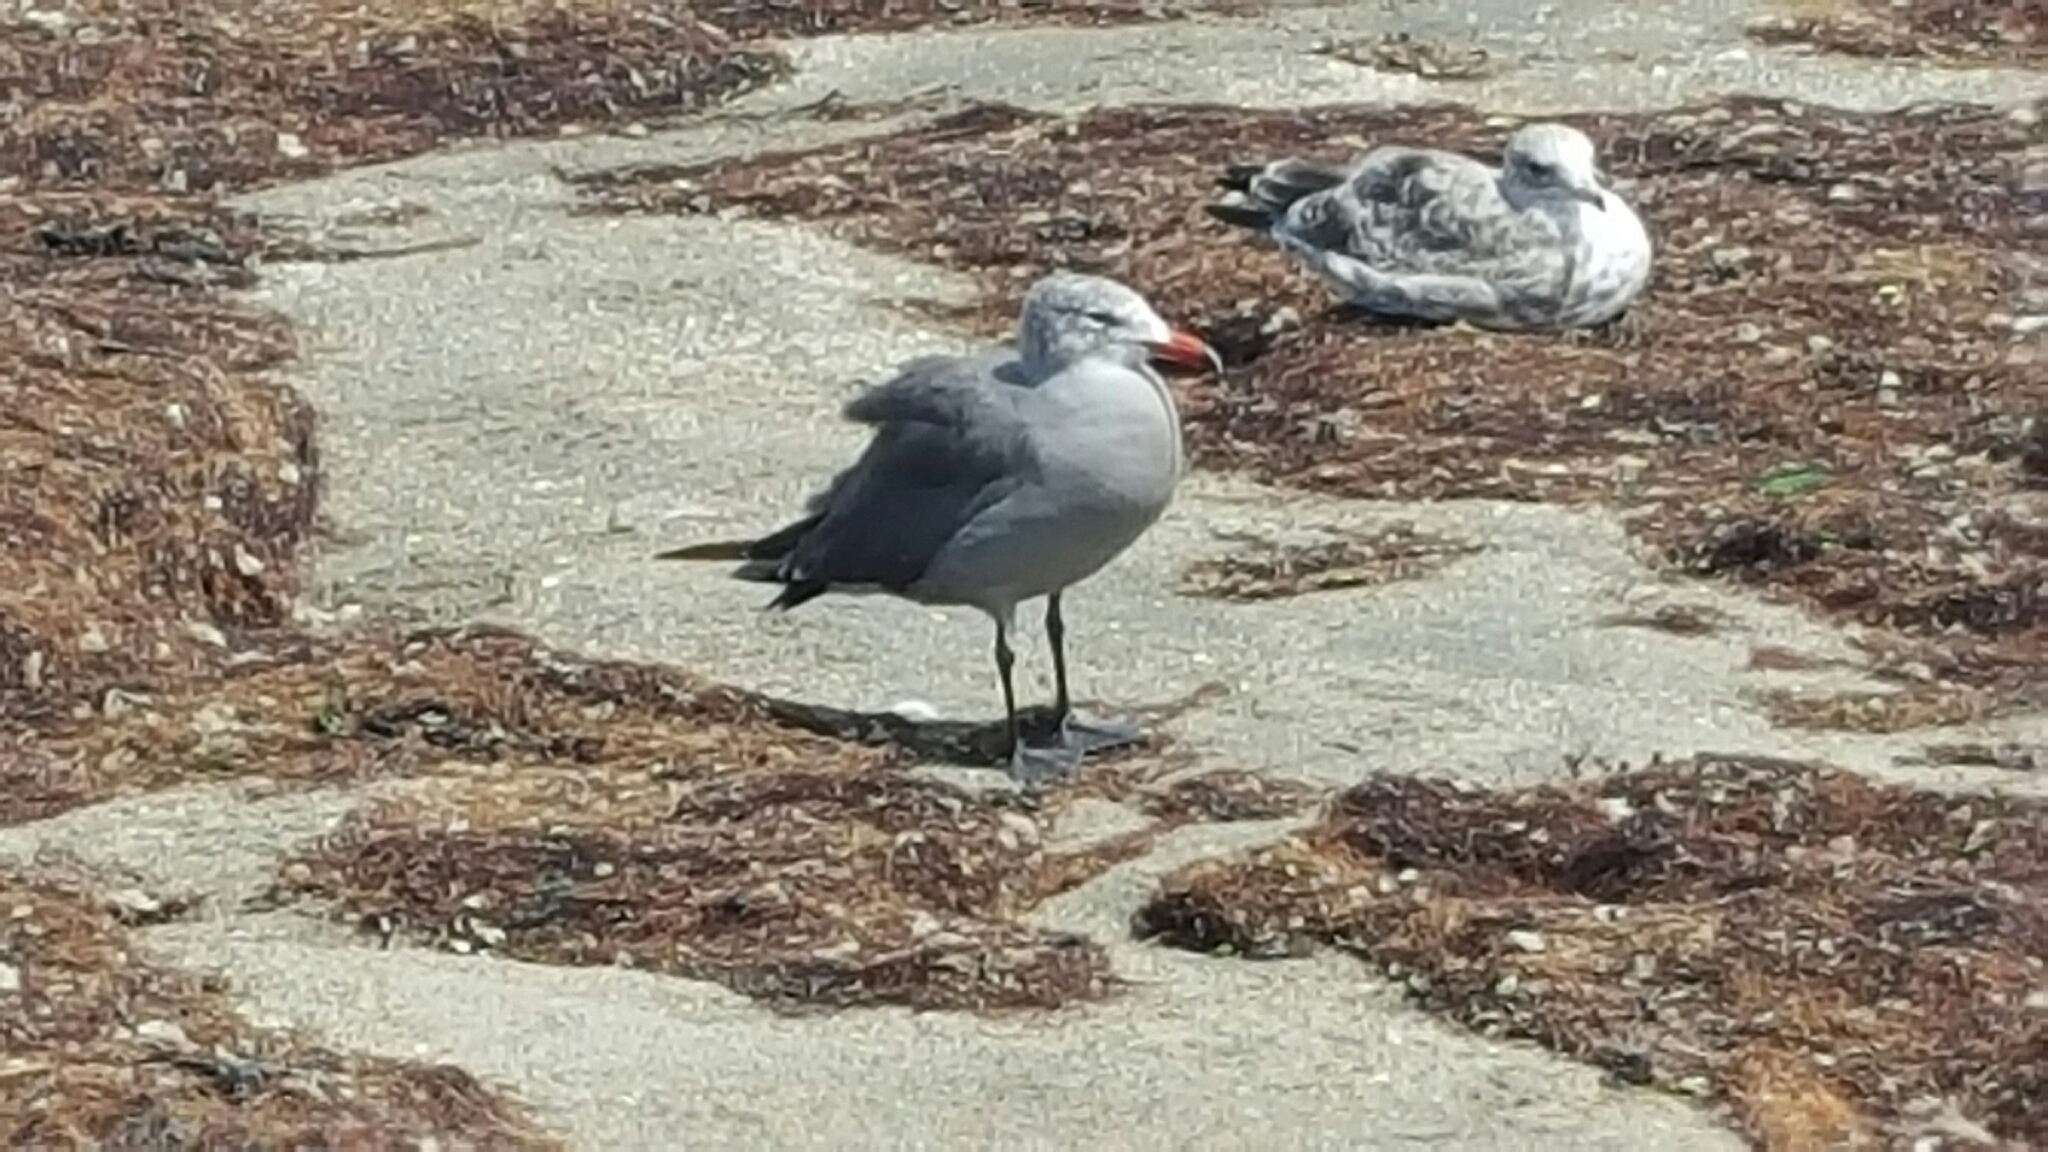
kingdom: Animalia
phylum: Chordata
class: Aves
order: Charadriiformes
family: Laridae
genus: Larus
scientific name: Larus heermanni
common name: Heermann's gull
